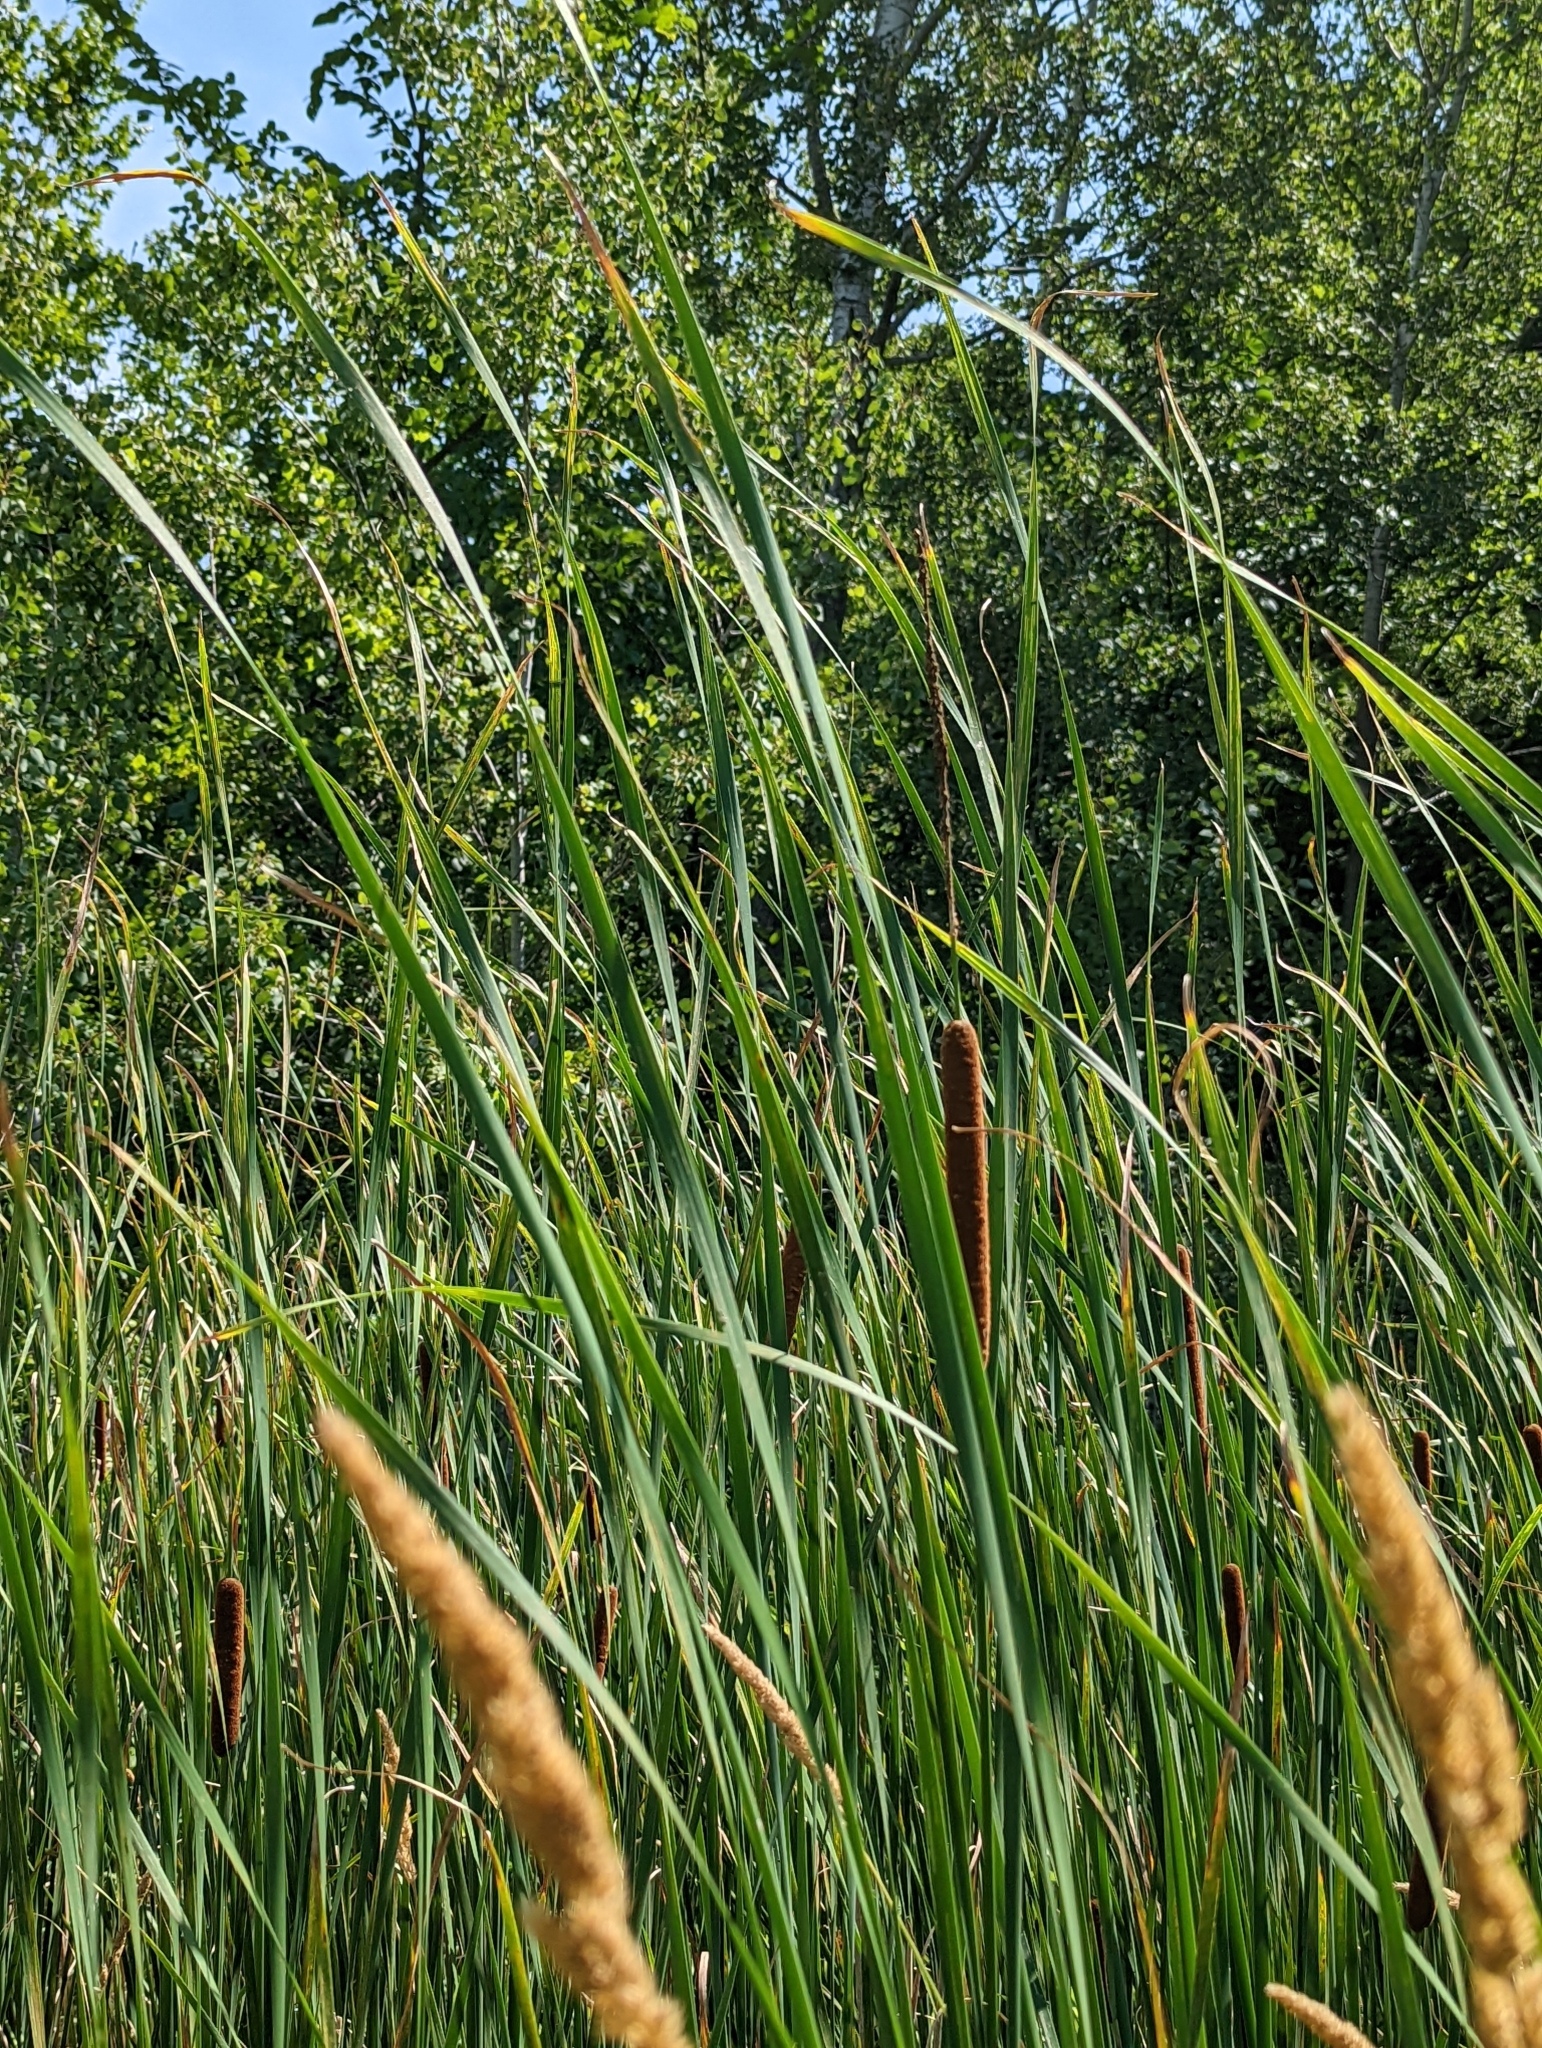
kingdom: Plantae
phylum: Tracheophyta
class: Liliopsida
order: Poales
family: Typhaceae
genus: Typha
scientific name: Typha angustifolia
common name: Lesser bulrush
